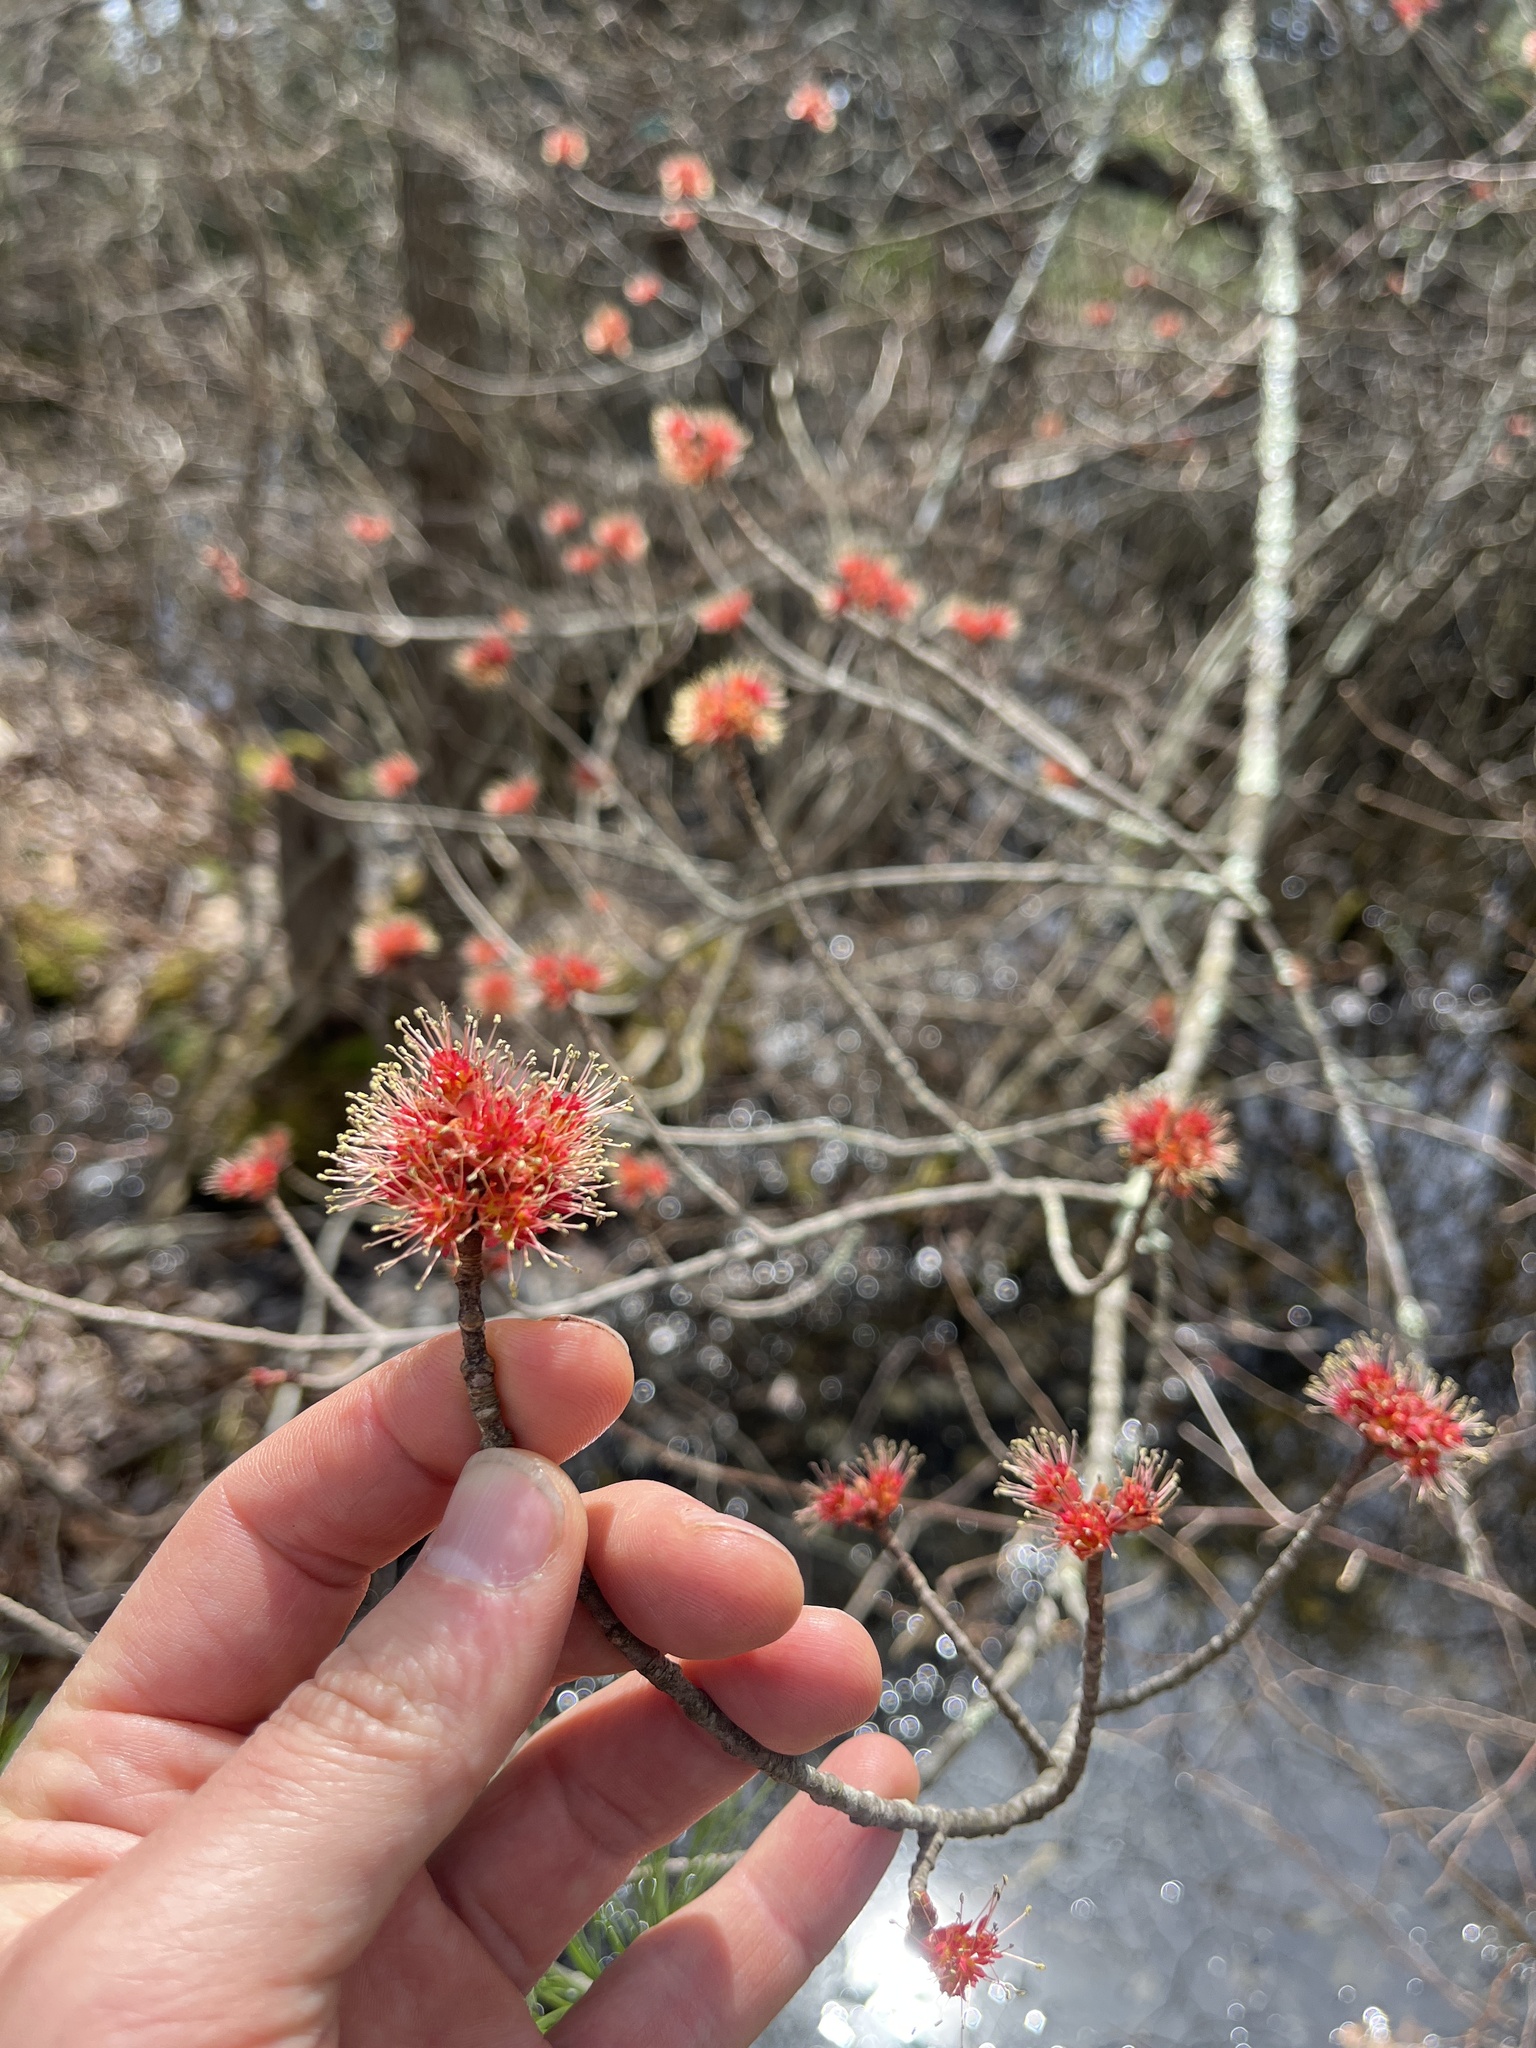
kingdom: Plantae
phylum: Tracheophyta
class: Magnoliopsida
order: Sapindales
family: Sapindaceae
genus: Acer
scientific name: Acer rubrum
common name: Red maple
